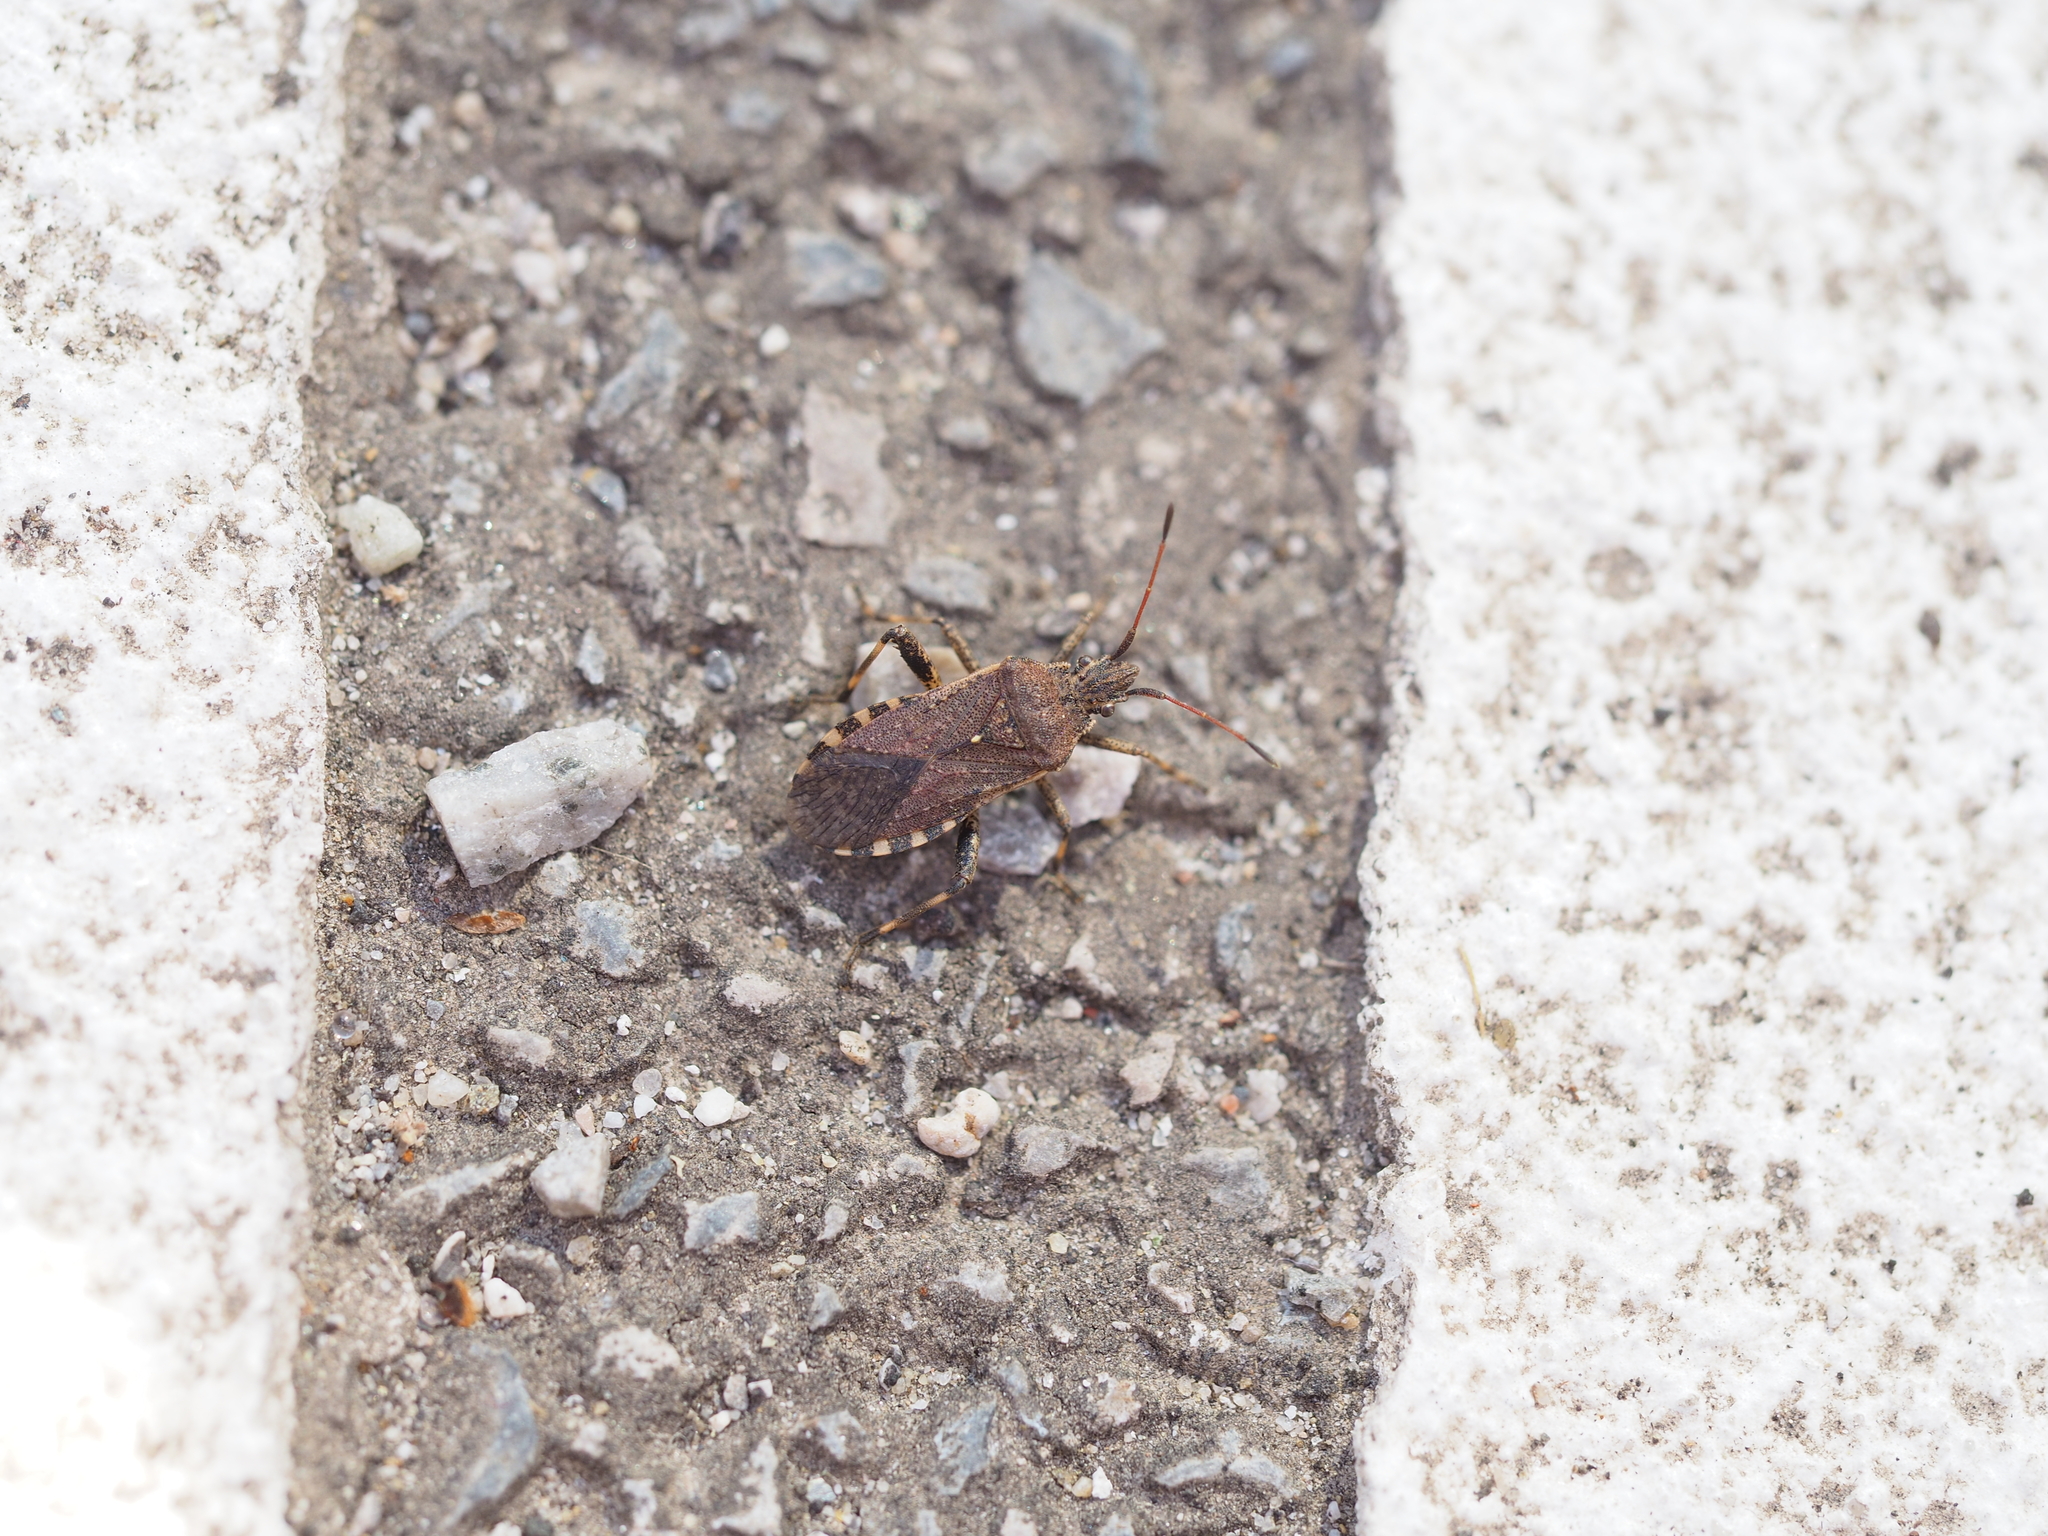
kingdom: Animalia
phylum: Arthropoda
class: Insecta
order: Hemiptera
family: Coreidae
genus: Ceraleptus
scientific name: Ceraleptus gracilicornis
